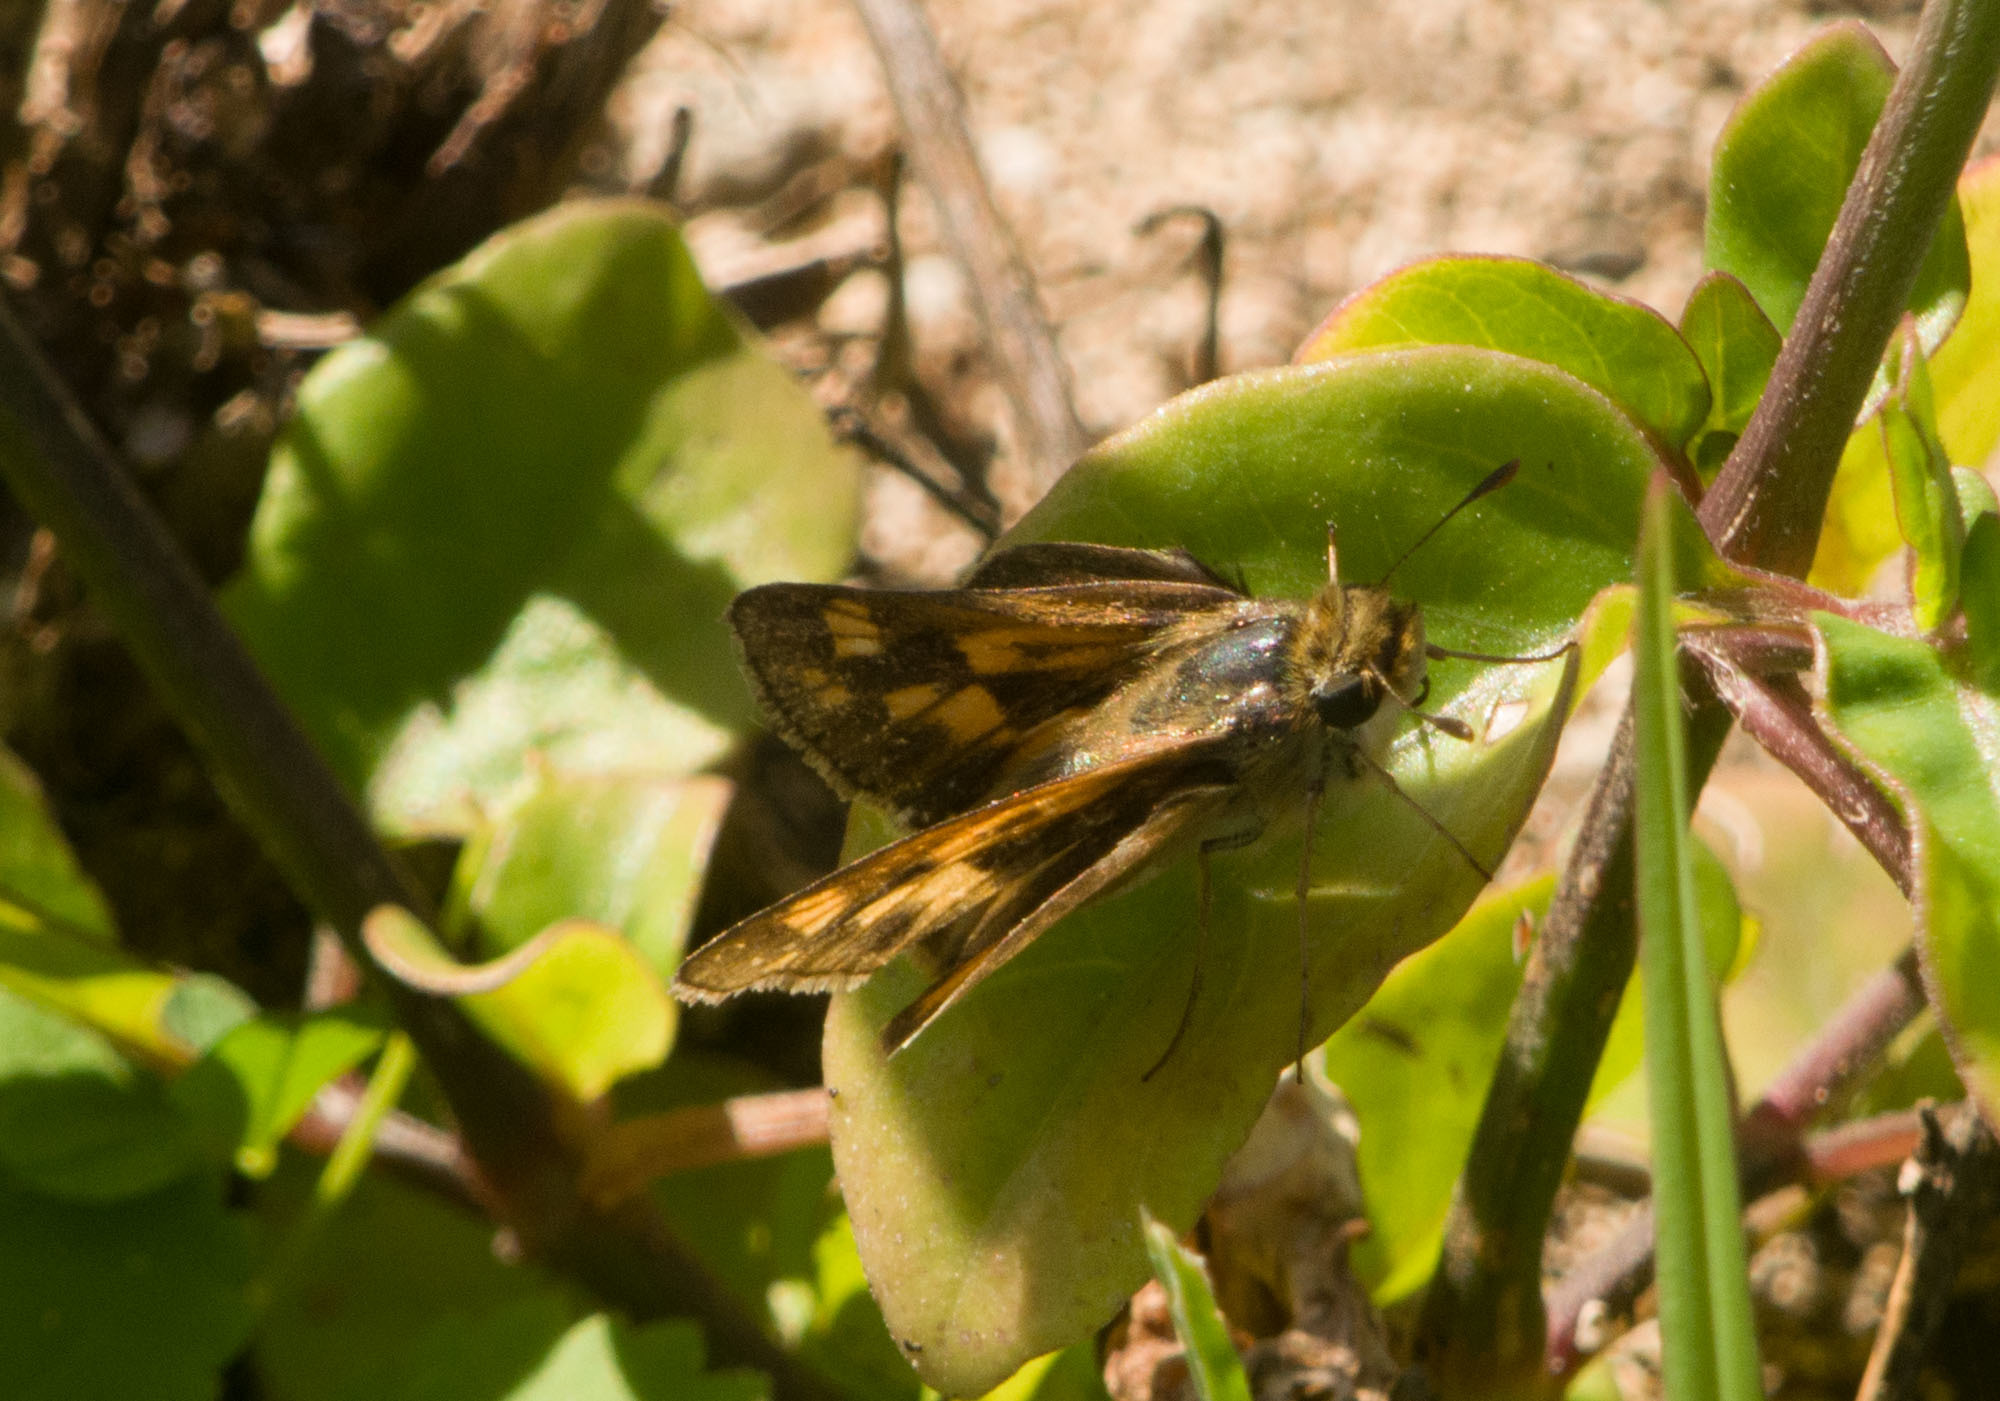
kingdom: Animalia
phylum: Arthropoda
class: Insecta
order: Lepidoptera
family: Hesperiidae
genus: Hylephila
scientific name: Hylephila phyleus
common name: Fiery skipper
